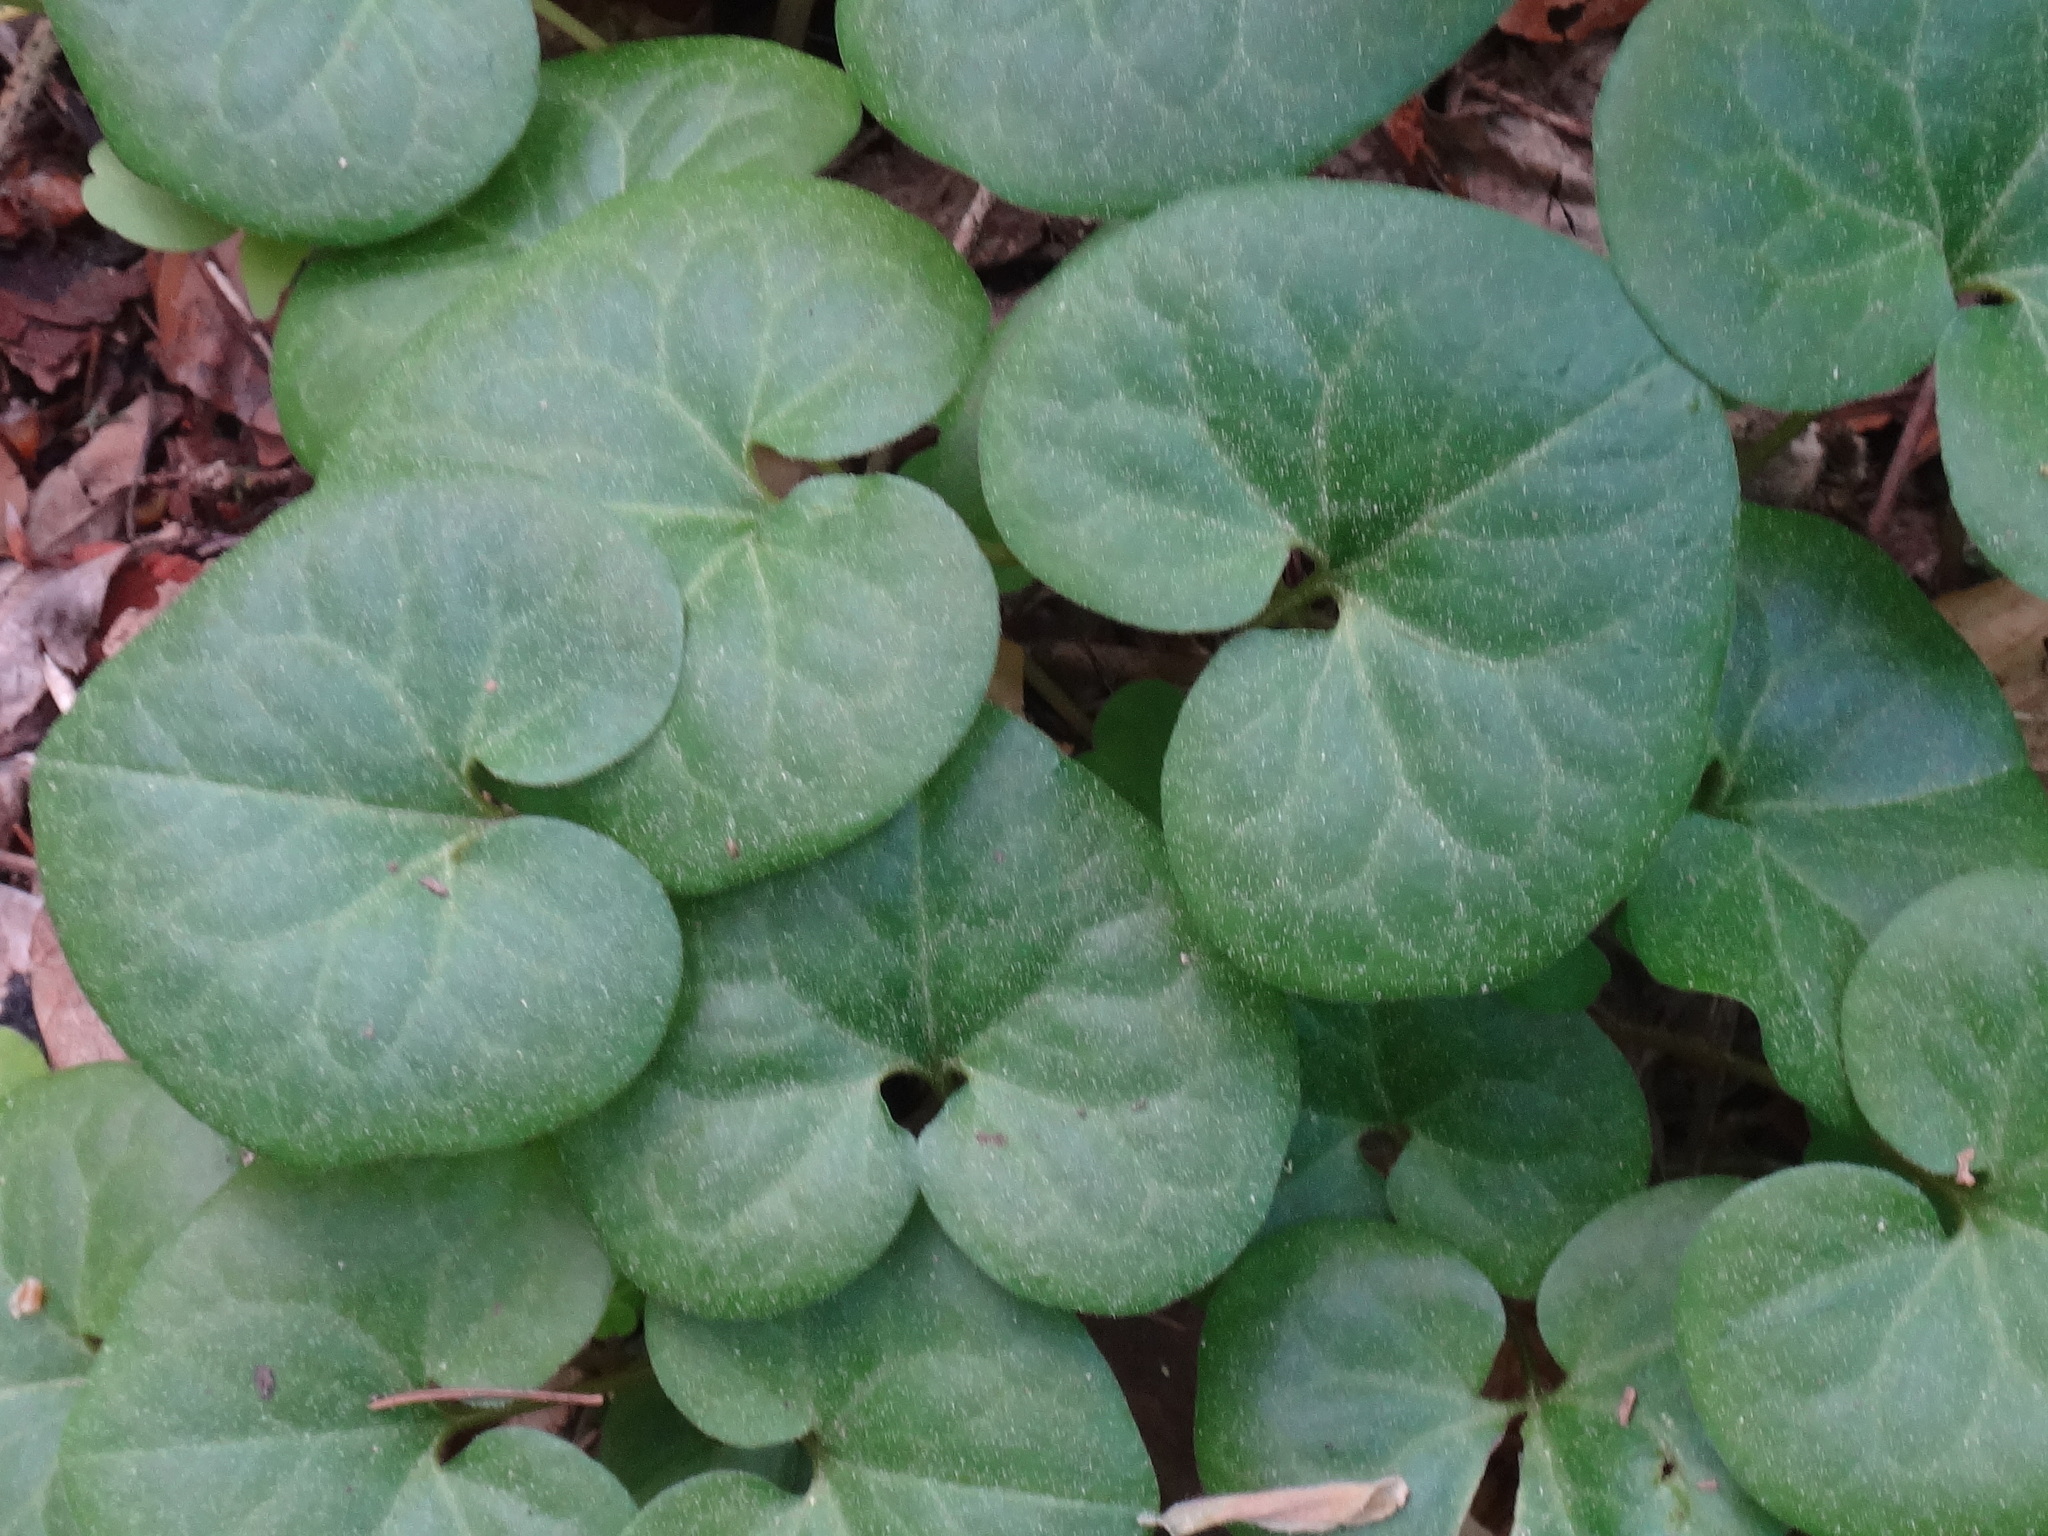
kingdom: Plantae
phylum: Tracheophyta
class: Magnoliopsida
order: Piperales
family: Aristolochiaceae
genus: Asarum
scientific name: Asarum europaeum
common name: Asarabacca
